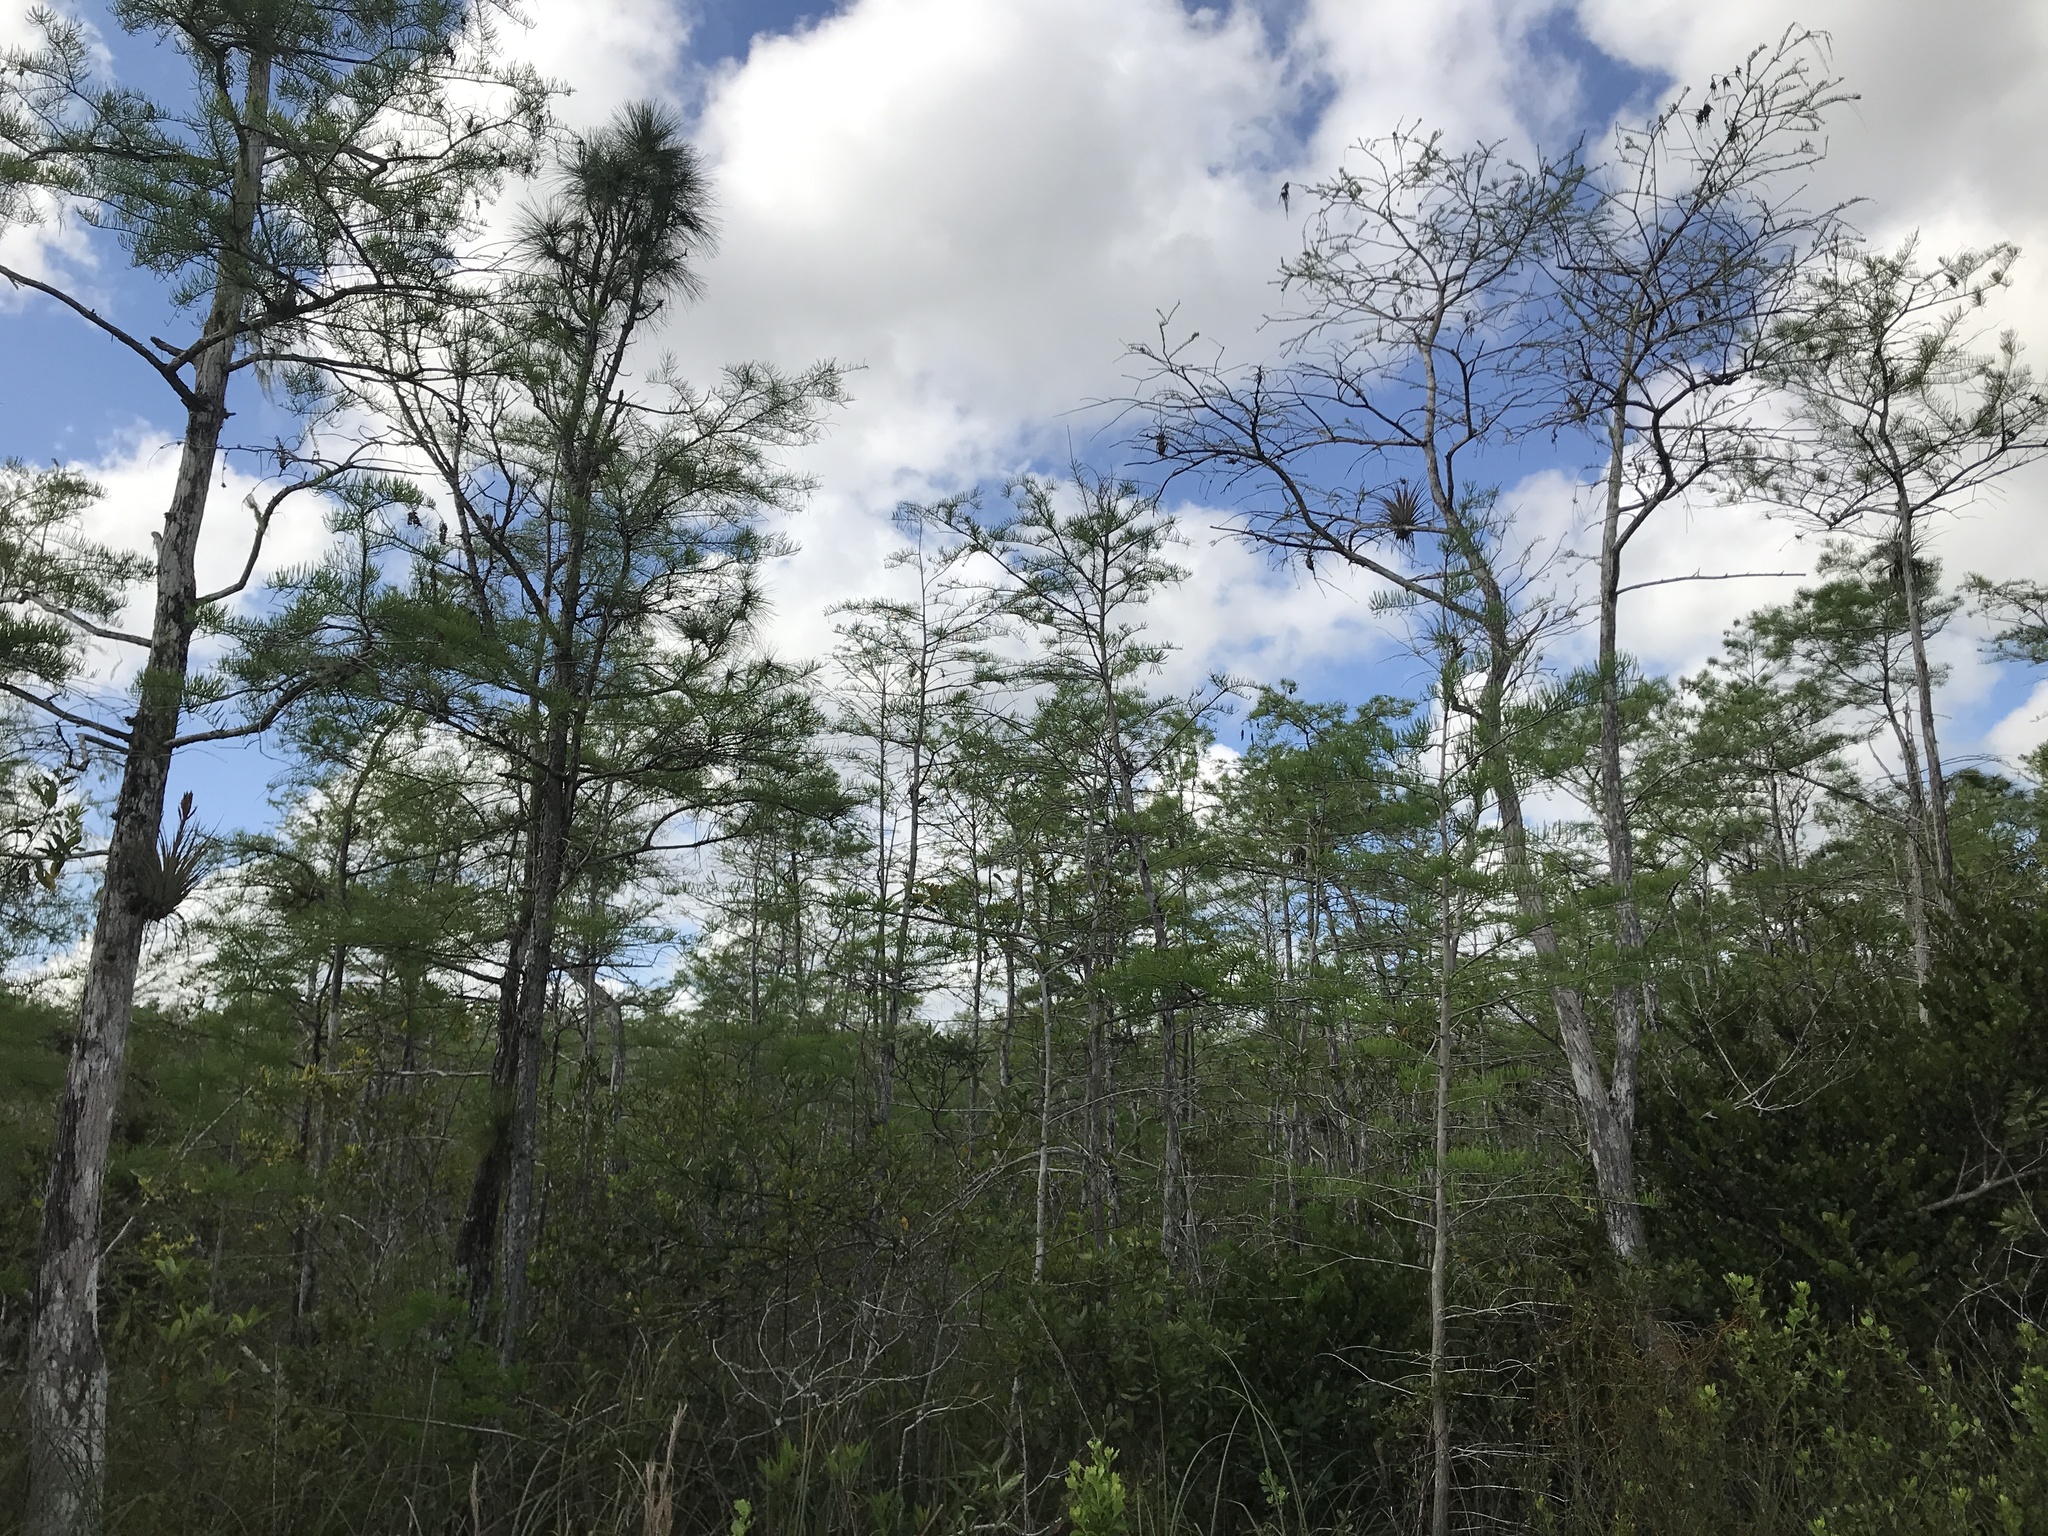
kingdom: Plantae
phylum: Tracheophyta
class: Pinopsida
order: Pinales
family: Cupressaceae
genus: Taxodium
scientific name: Taxodium distichum
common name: Bald cypress
